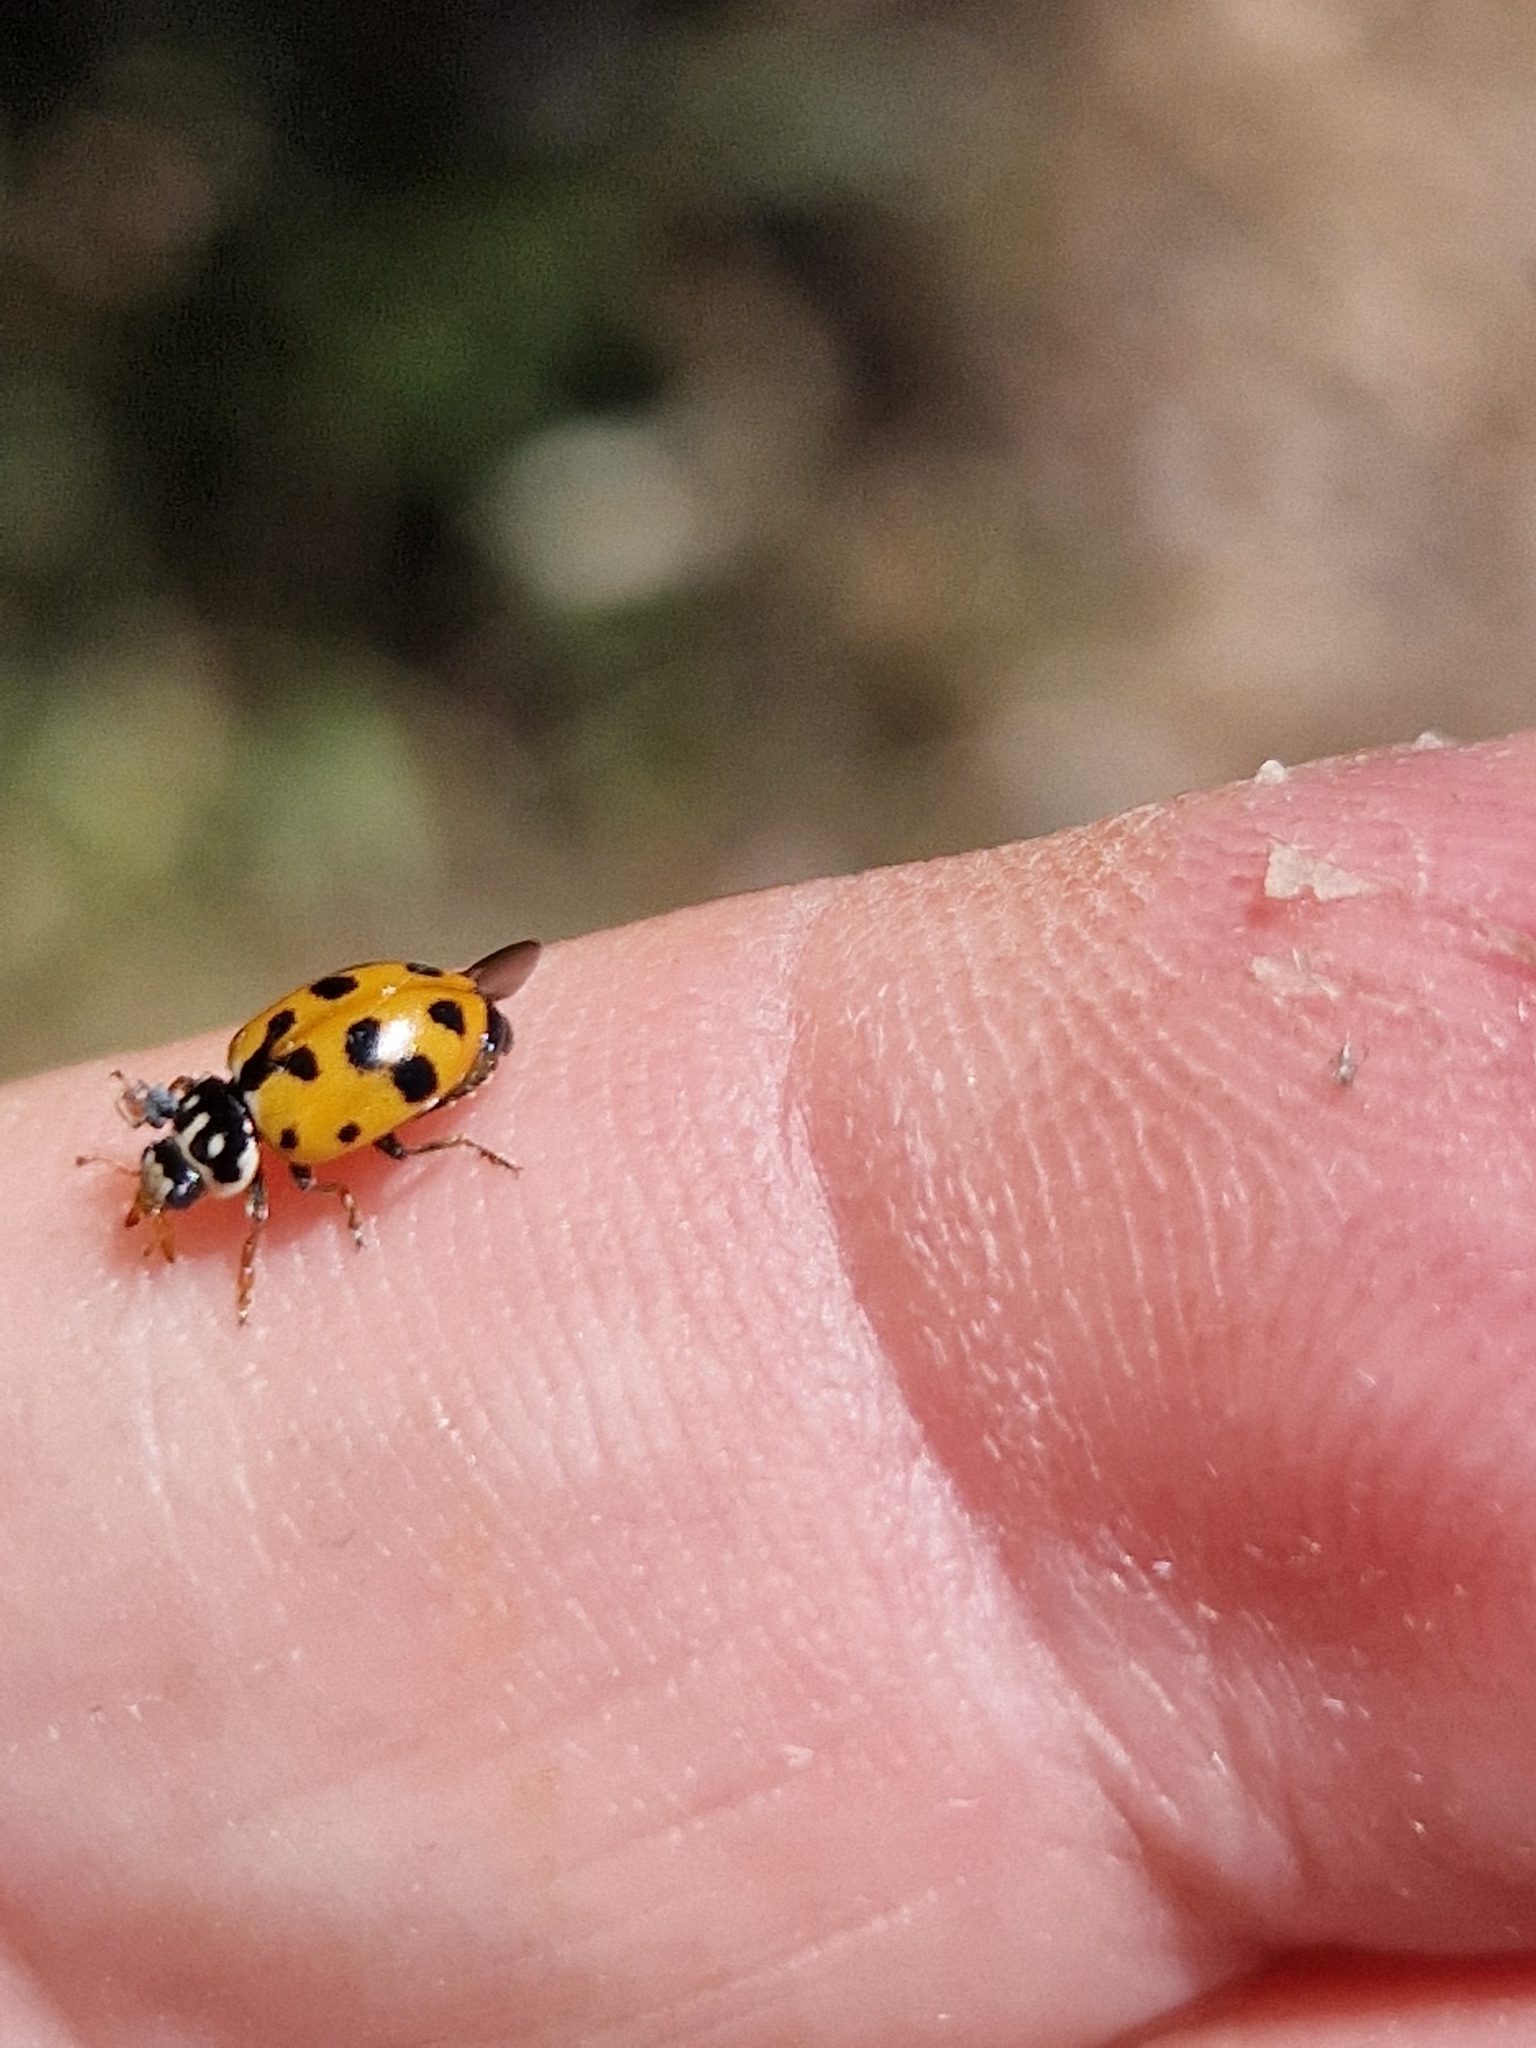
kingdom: Animalia
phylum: Arthropoda
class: Insecta
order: Coleoptera
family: Coccinellidae
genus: Hippodamia
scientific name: Hippodamia variegata
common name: Ladybird beetle
